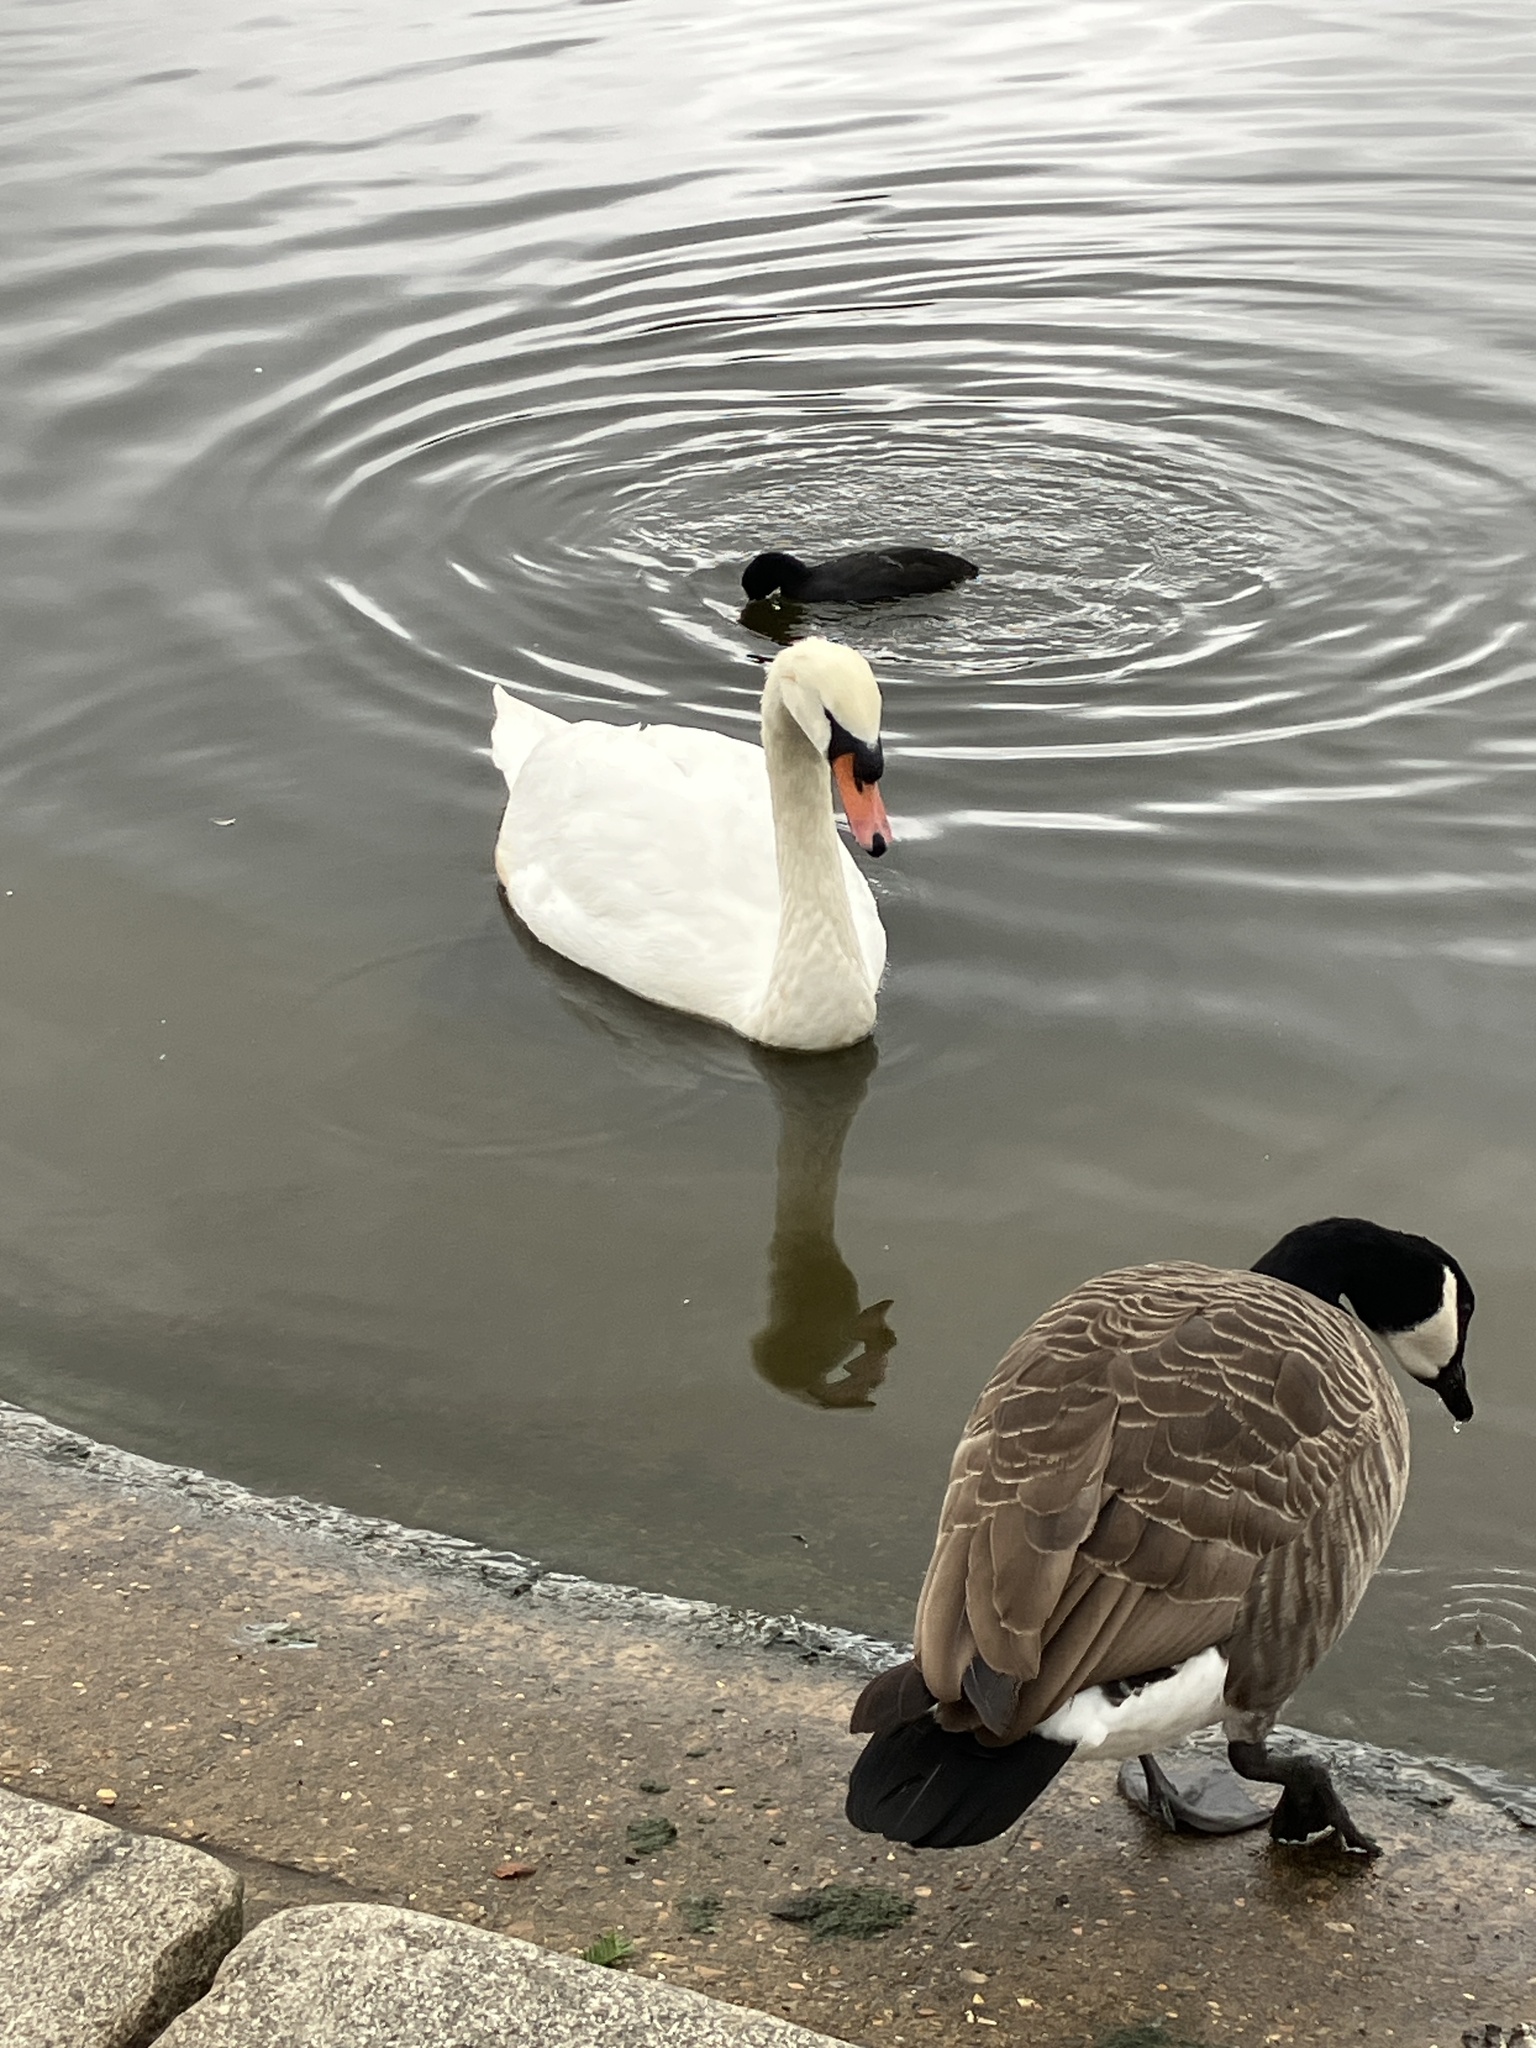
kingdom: Animalia
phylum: Chordata
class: Aves
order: Anseriformes
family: Anatidae
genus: Cygnus
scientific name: Cygnus olor
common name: Mute swan
